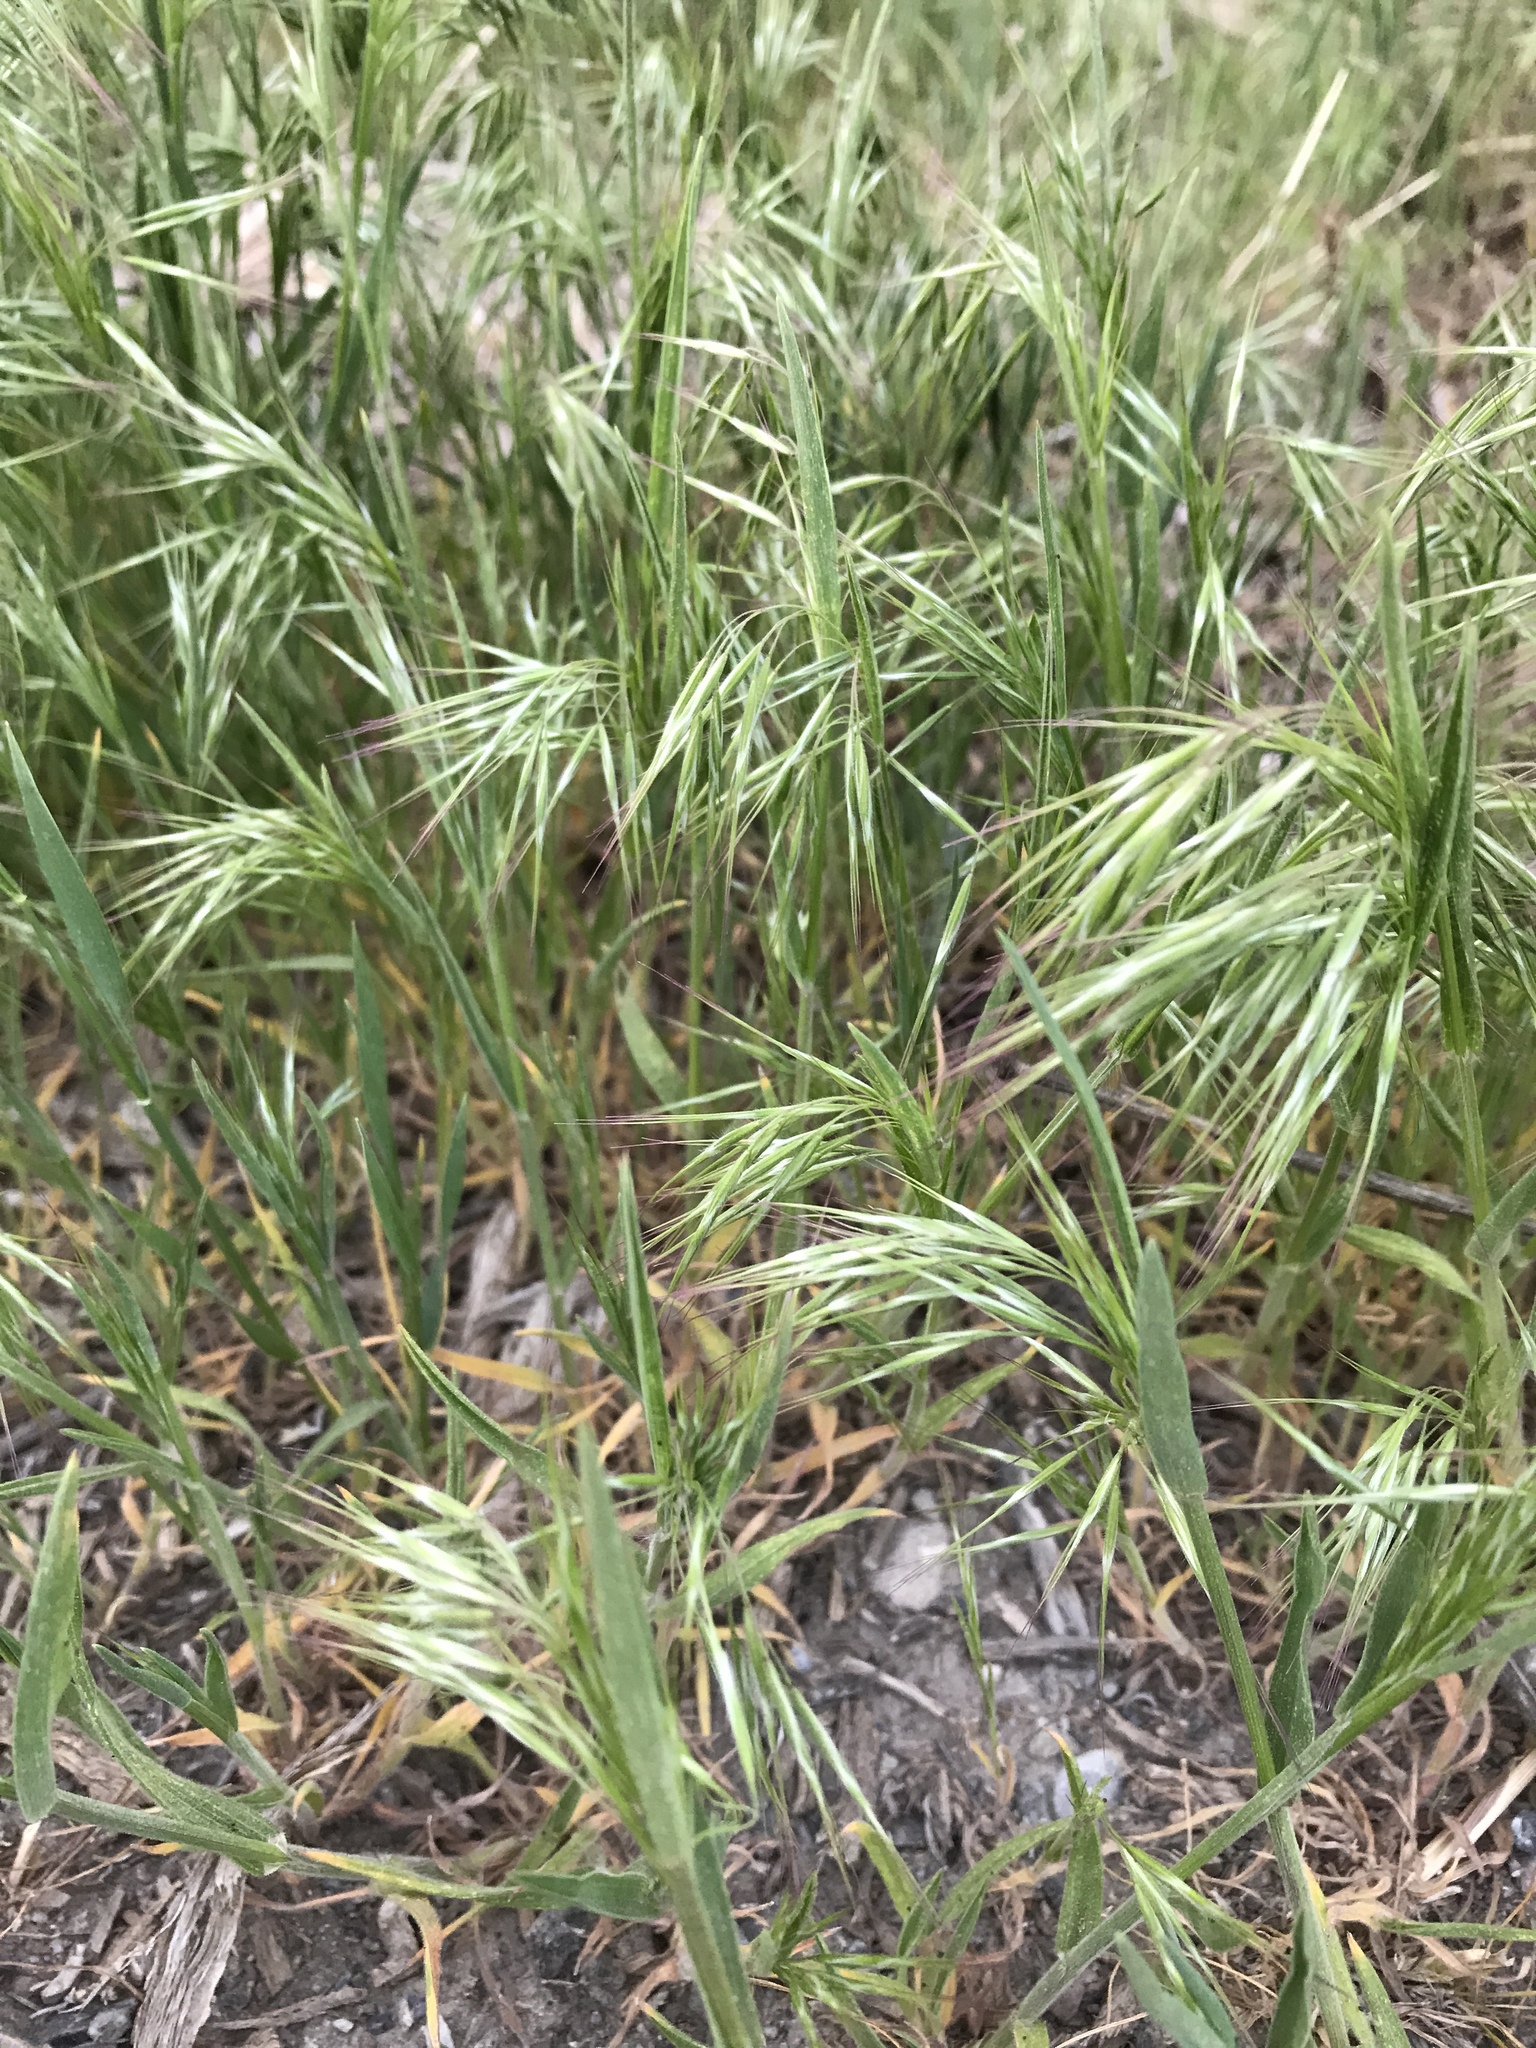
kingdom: Plantae
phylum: Tracheophyta
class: Liliopsida
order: Poales
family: Poaceae
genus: Bromus
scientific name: Bromus tectorum
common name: Cheatgrass
